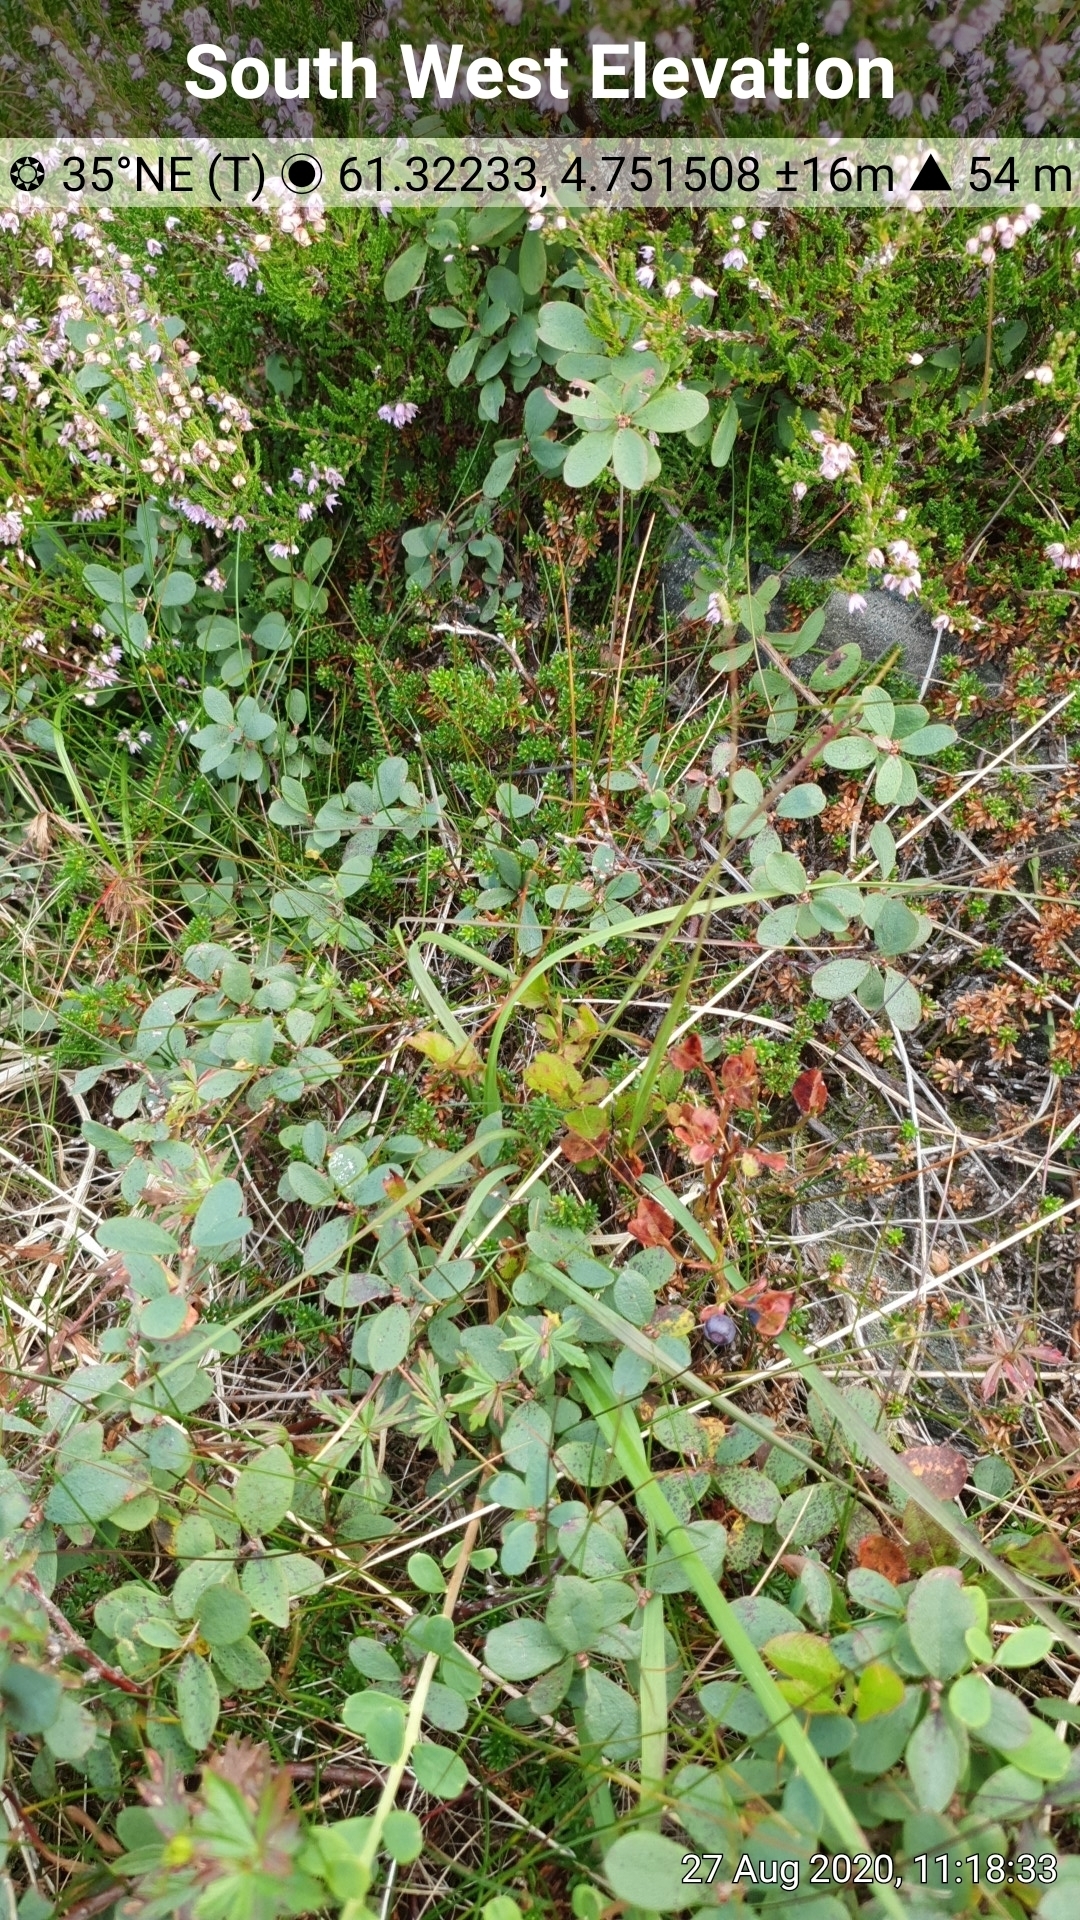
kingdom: Plantae
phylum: Tracheophyta
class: Magnoliopsida
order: Ericales
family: Ericaceae
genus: Vaccinium
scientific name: Vaccinium uliginosum
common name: Bog bilberry
